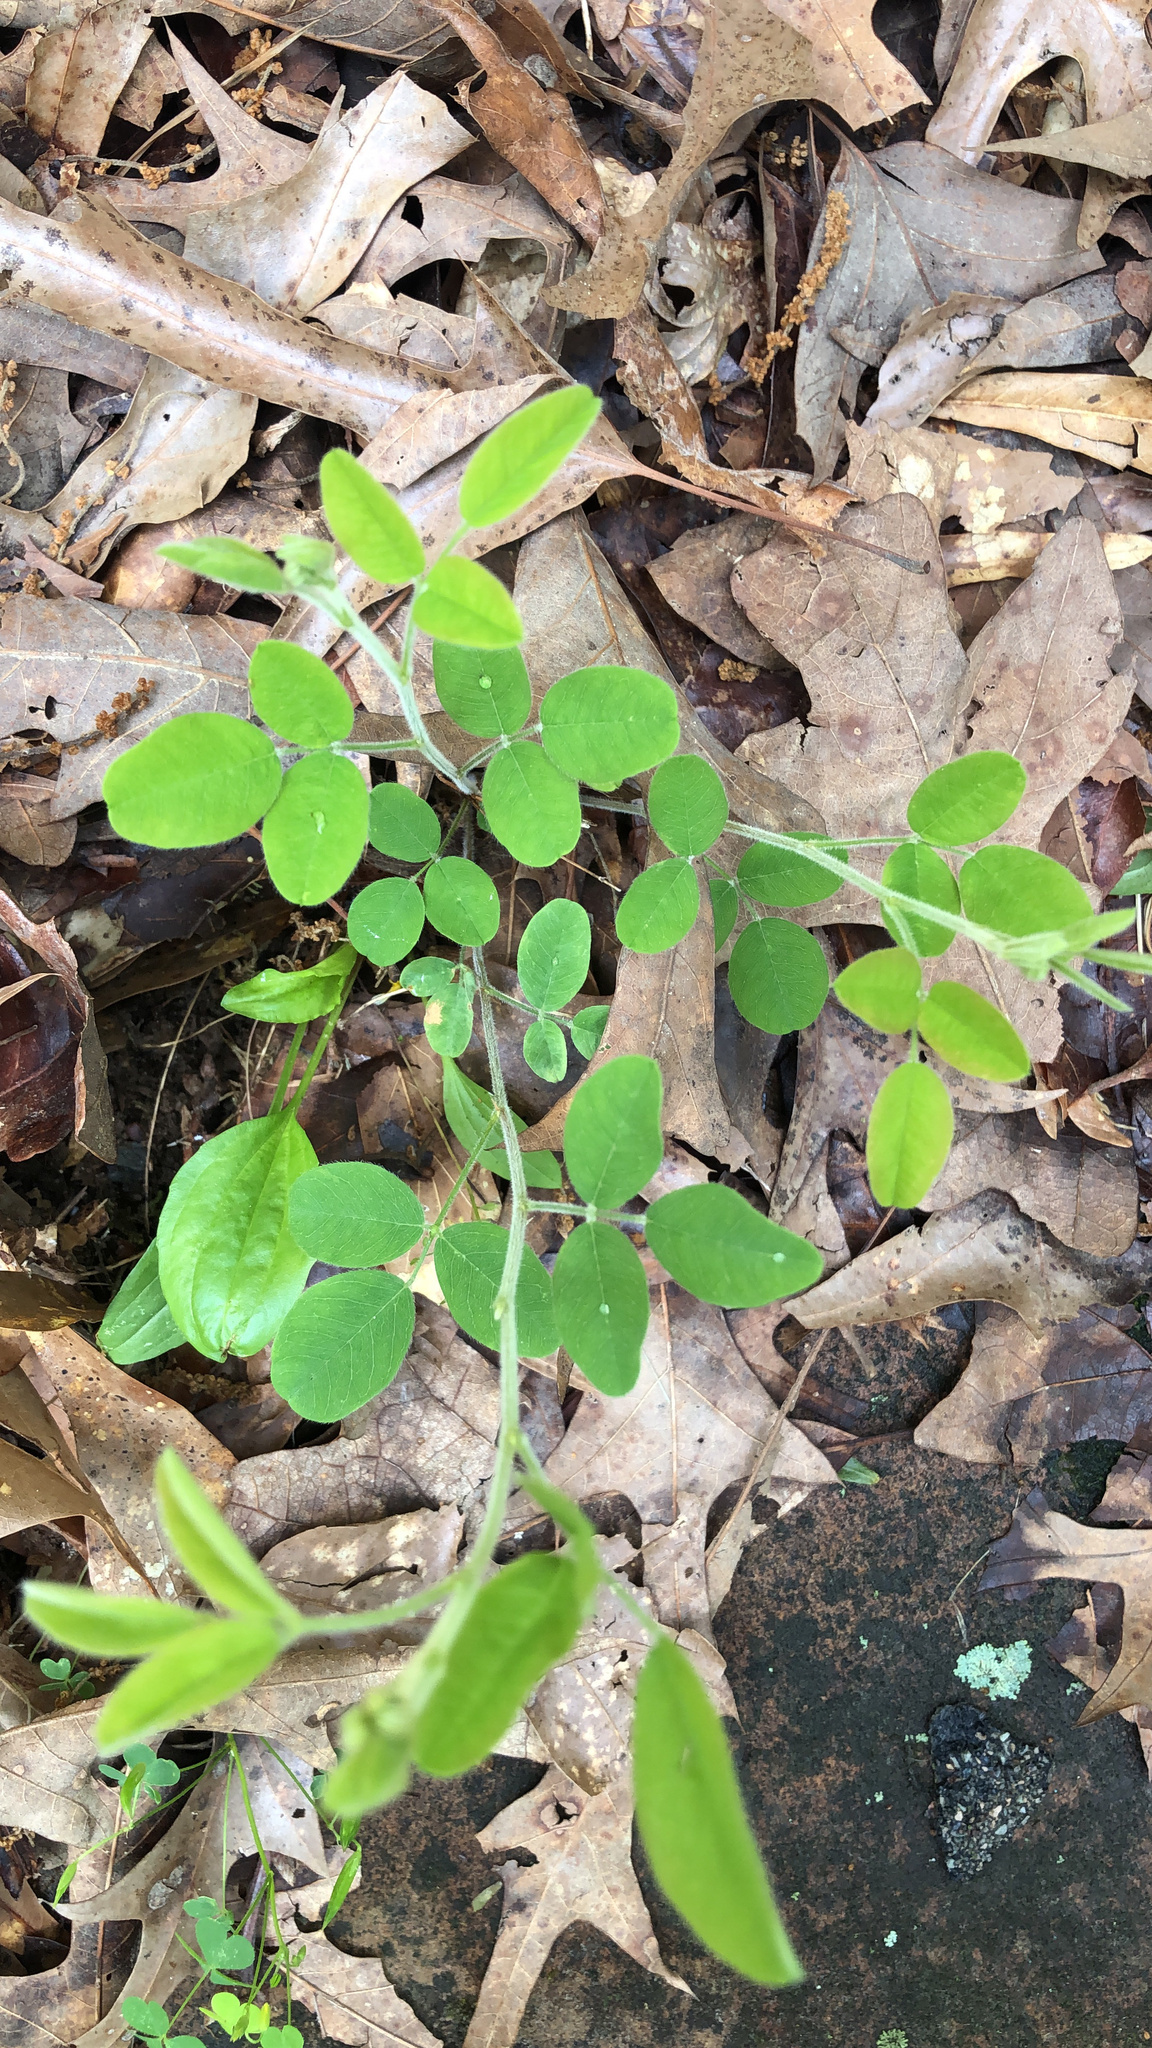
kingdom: Plantae
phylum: Tracheophyta
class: Magnoliopsida
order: Fabales
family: Fabaceae
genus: Lespedeza
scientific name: Lespedeza procumbens
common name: Downy trailing bush-clover
